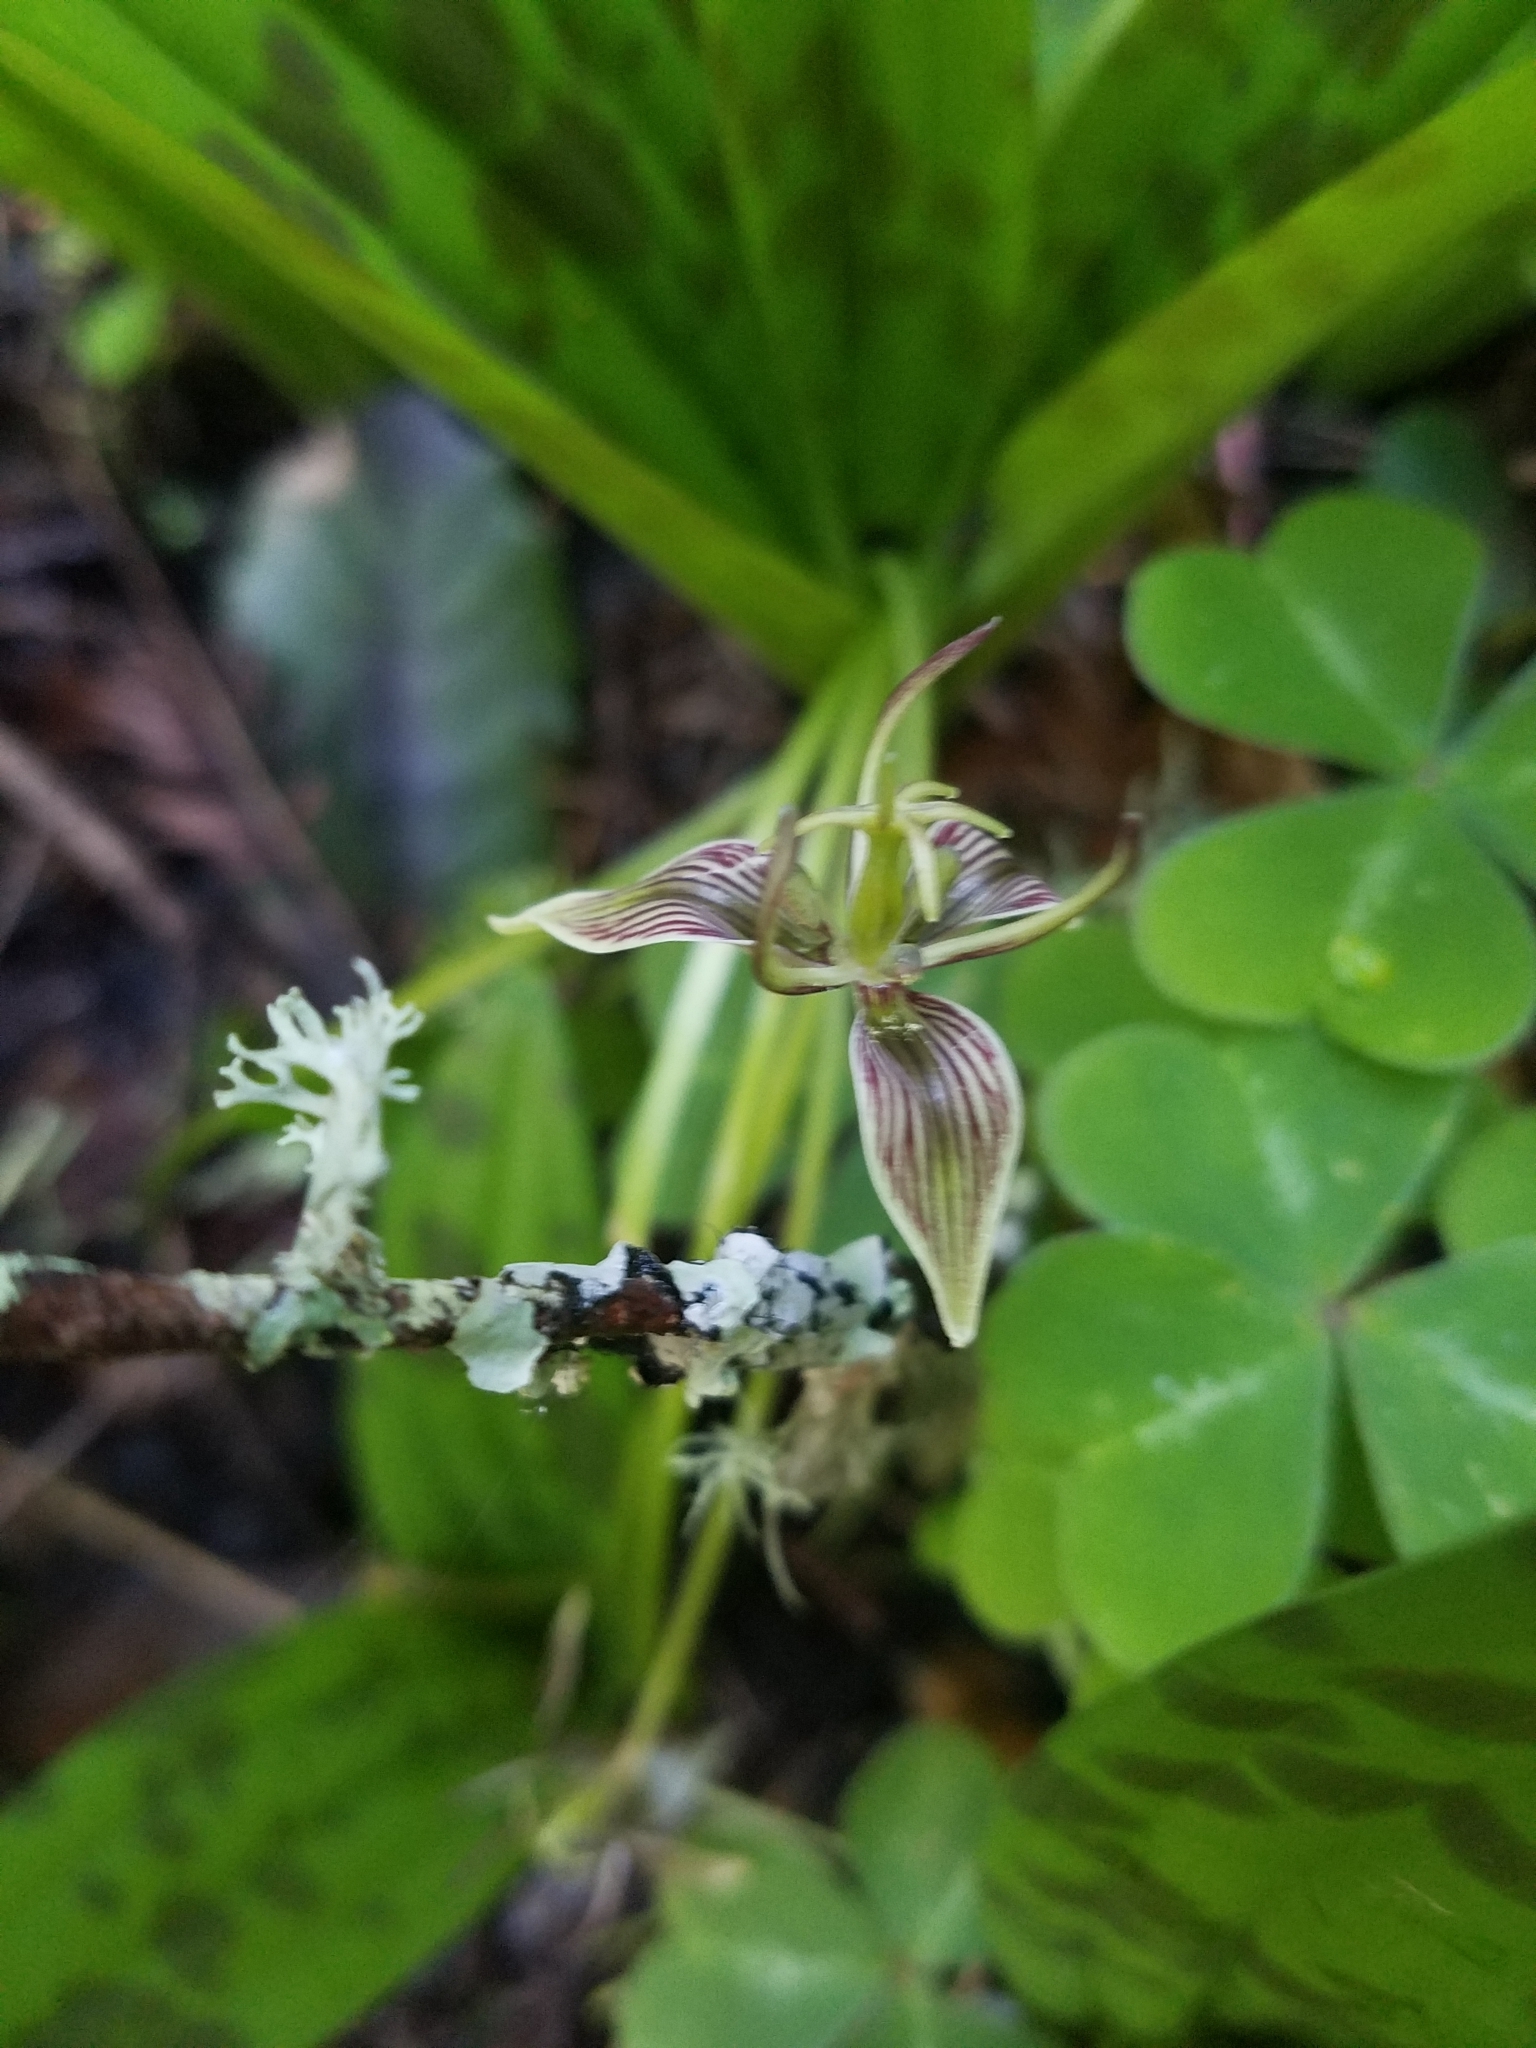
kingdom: Plantae
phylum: Tracheophyta
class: Liliopsida
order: Liliales
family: Liliaceae
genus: Scoliopus
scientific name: Scoliopus bigelovii
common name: Foetid adder's-tongue
